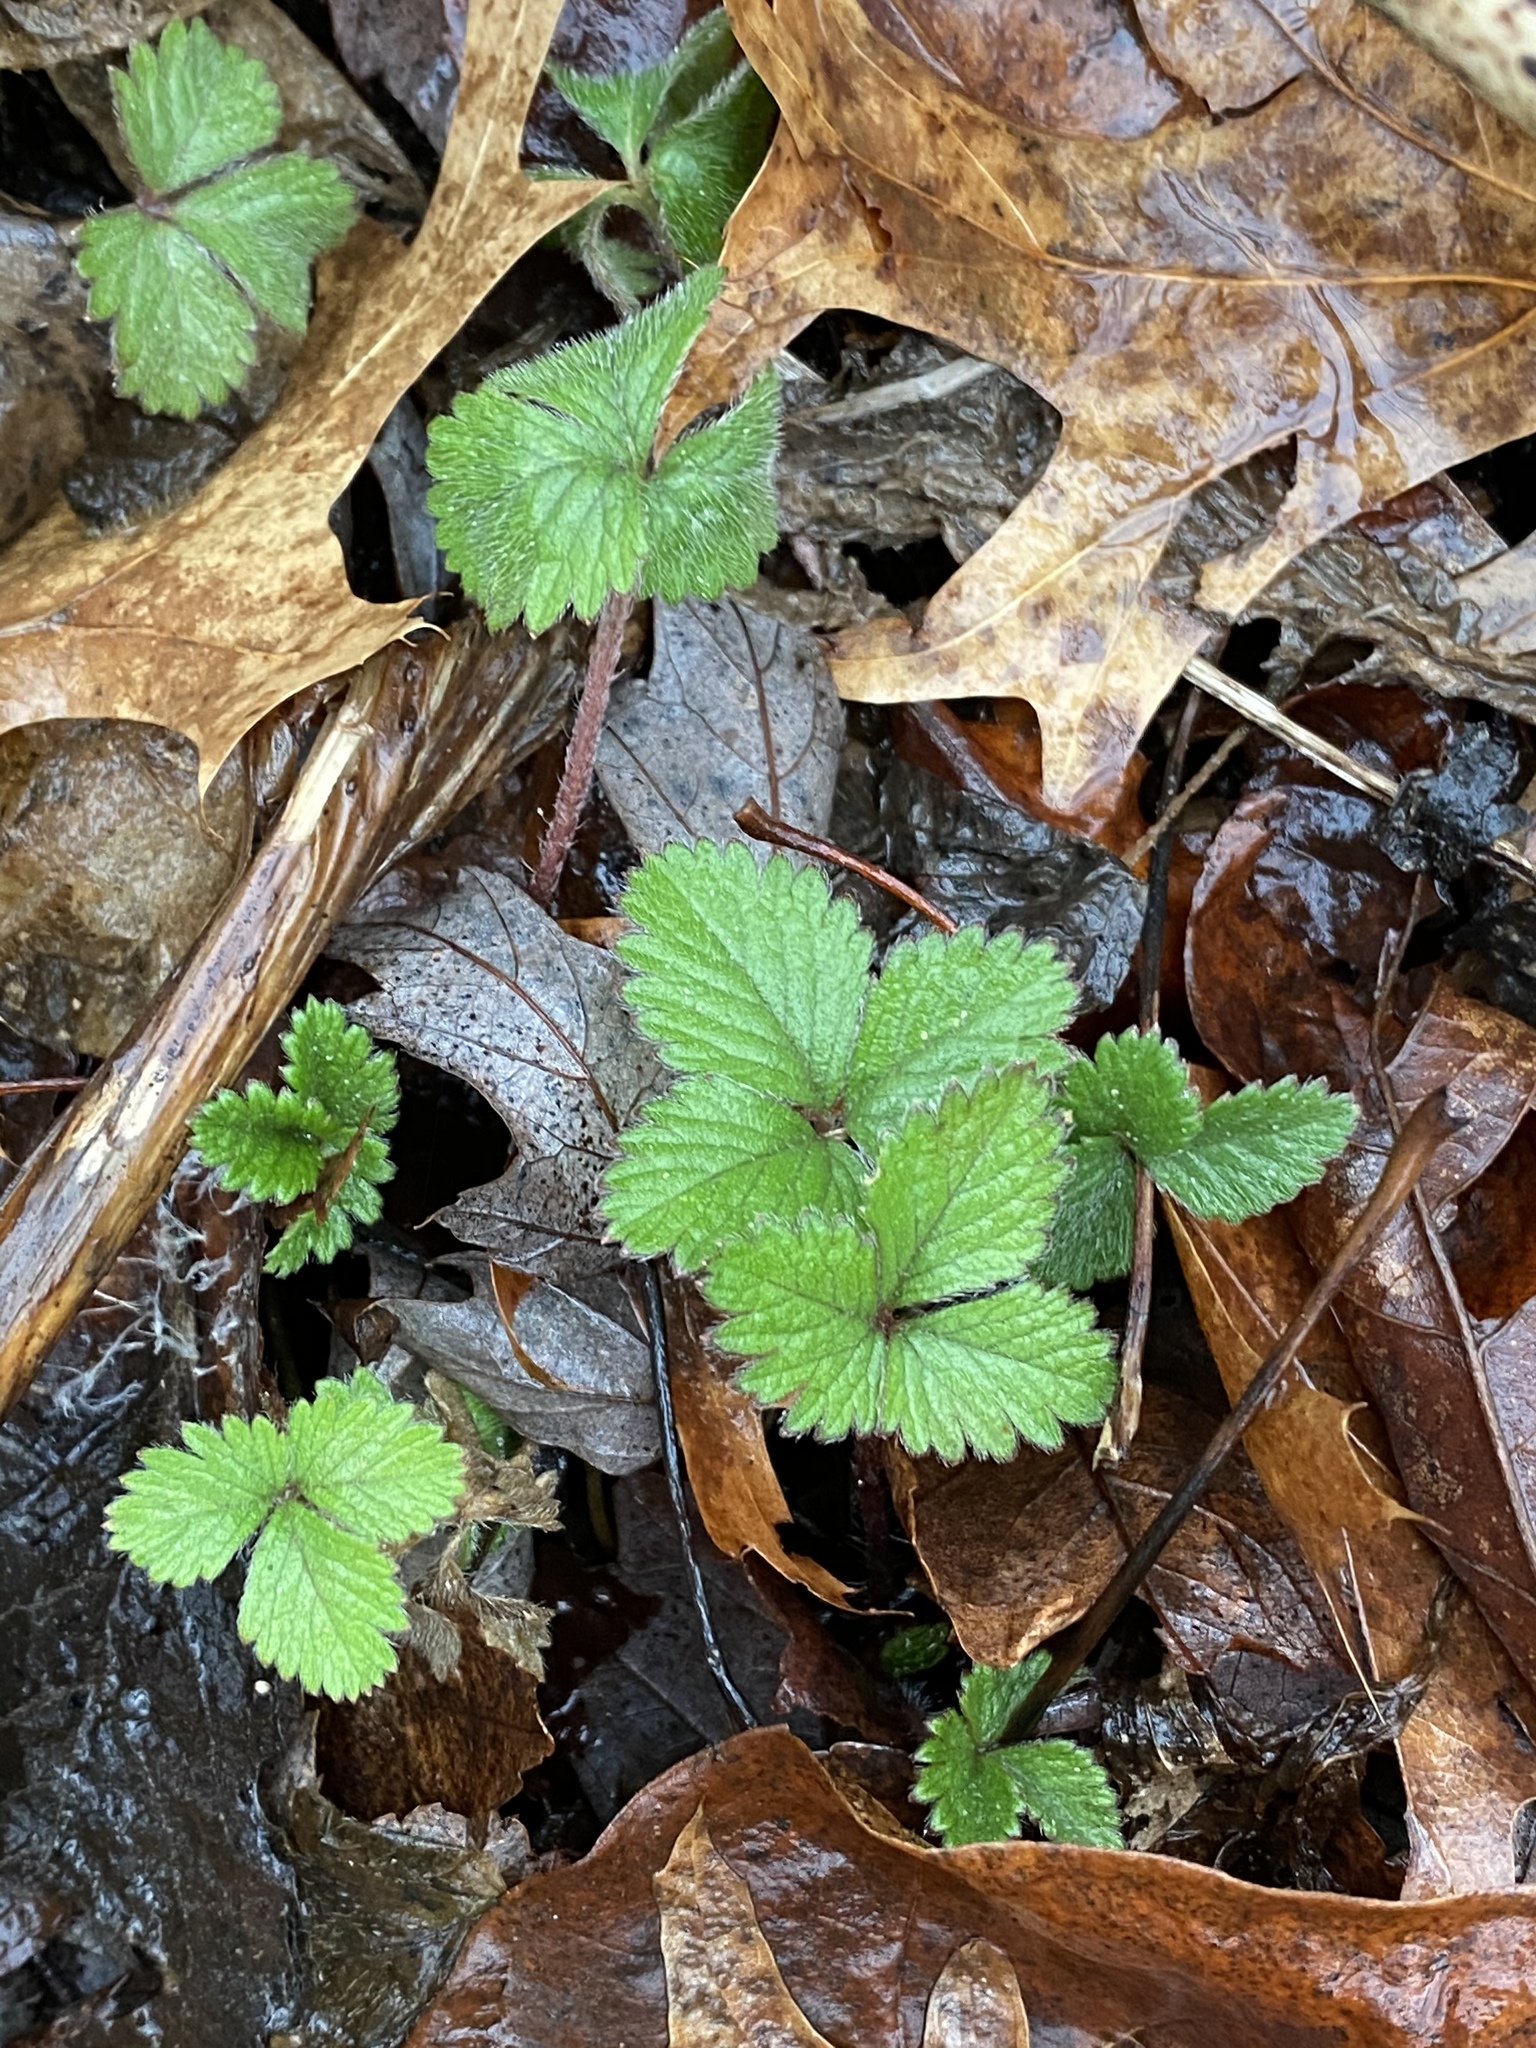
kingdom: Plantae
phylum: Tracheophyta
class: Magnoliopsida
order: Rosales
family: Rosaceae
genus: Potentilla
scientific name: Potentilla indica
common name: Yellow-flowered strawberry
